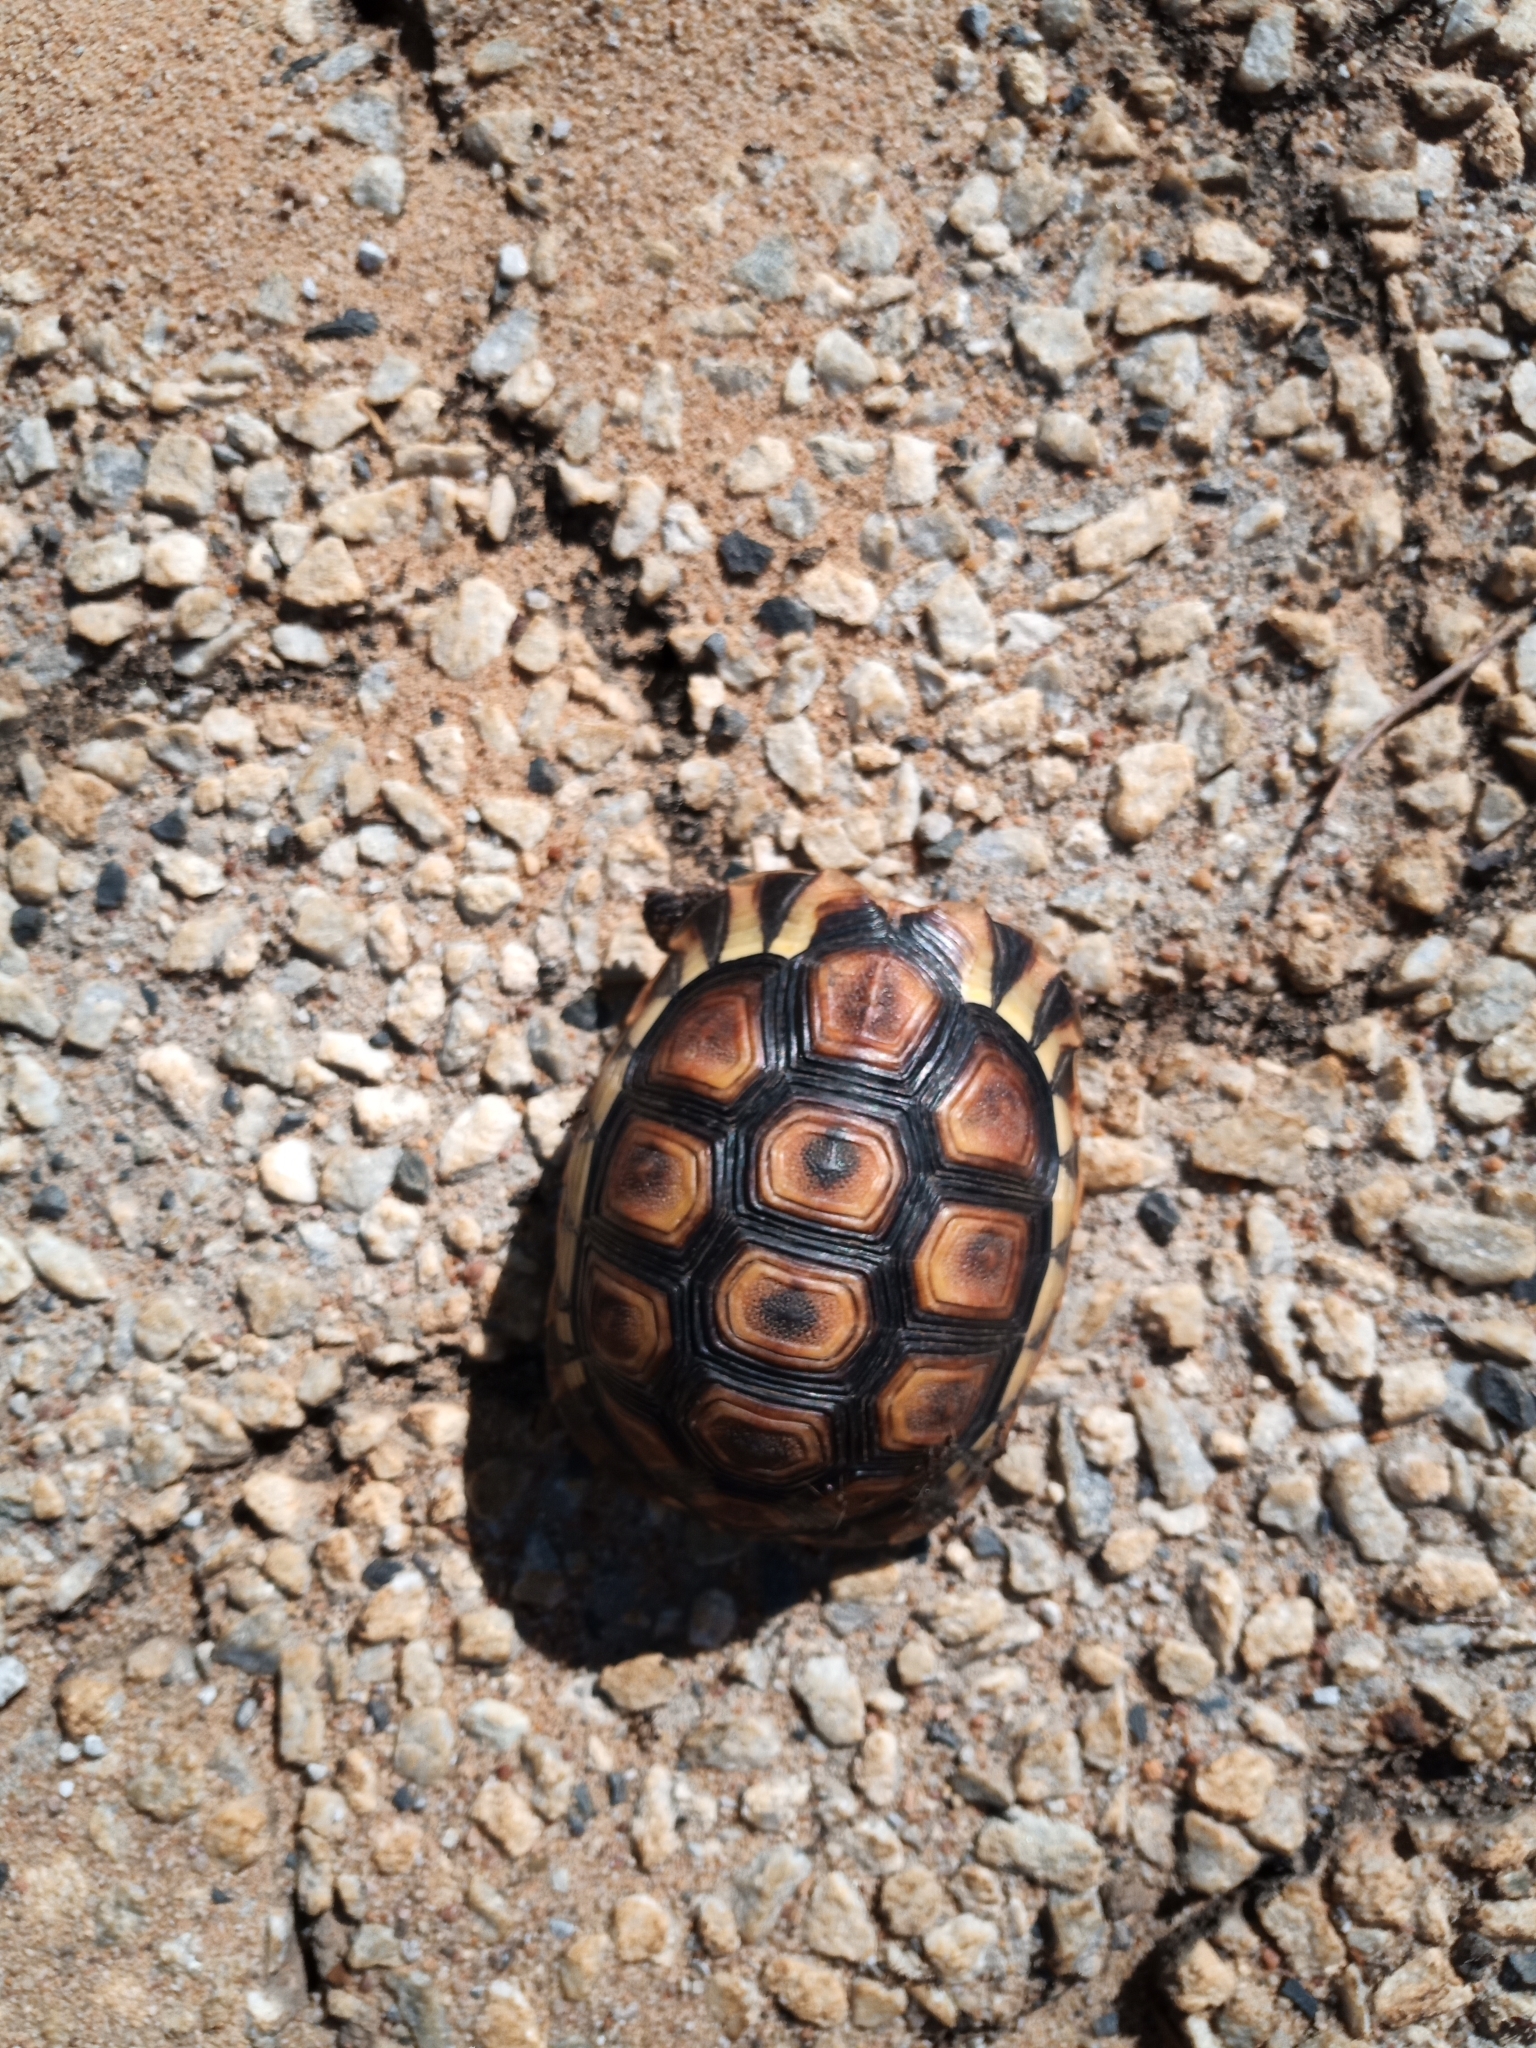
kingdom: Animalia
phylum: Chordata
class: Testudines
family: Testudinidae
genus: Chersina
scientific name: Chersina angulata
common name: South african bowsprit tortoise
